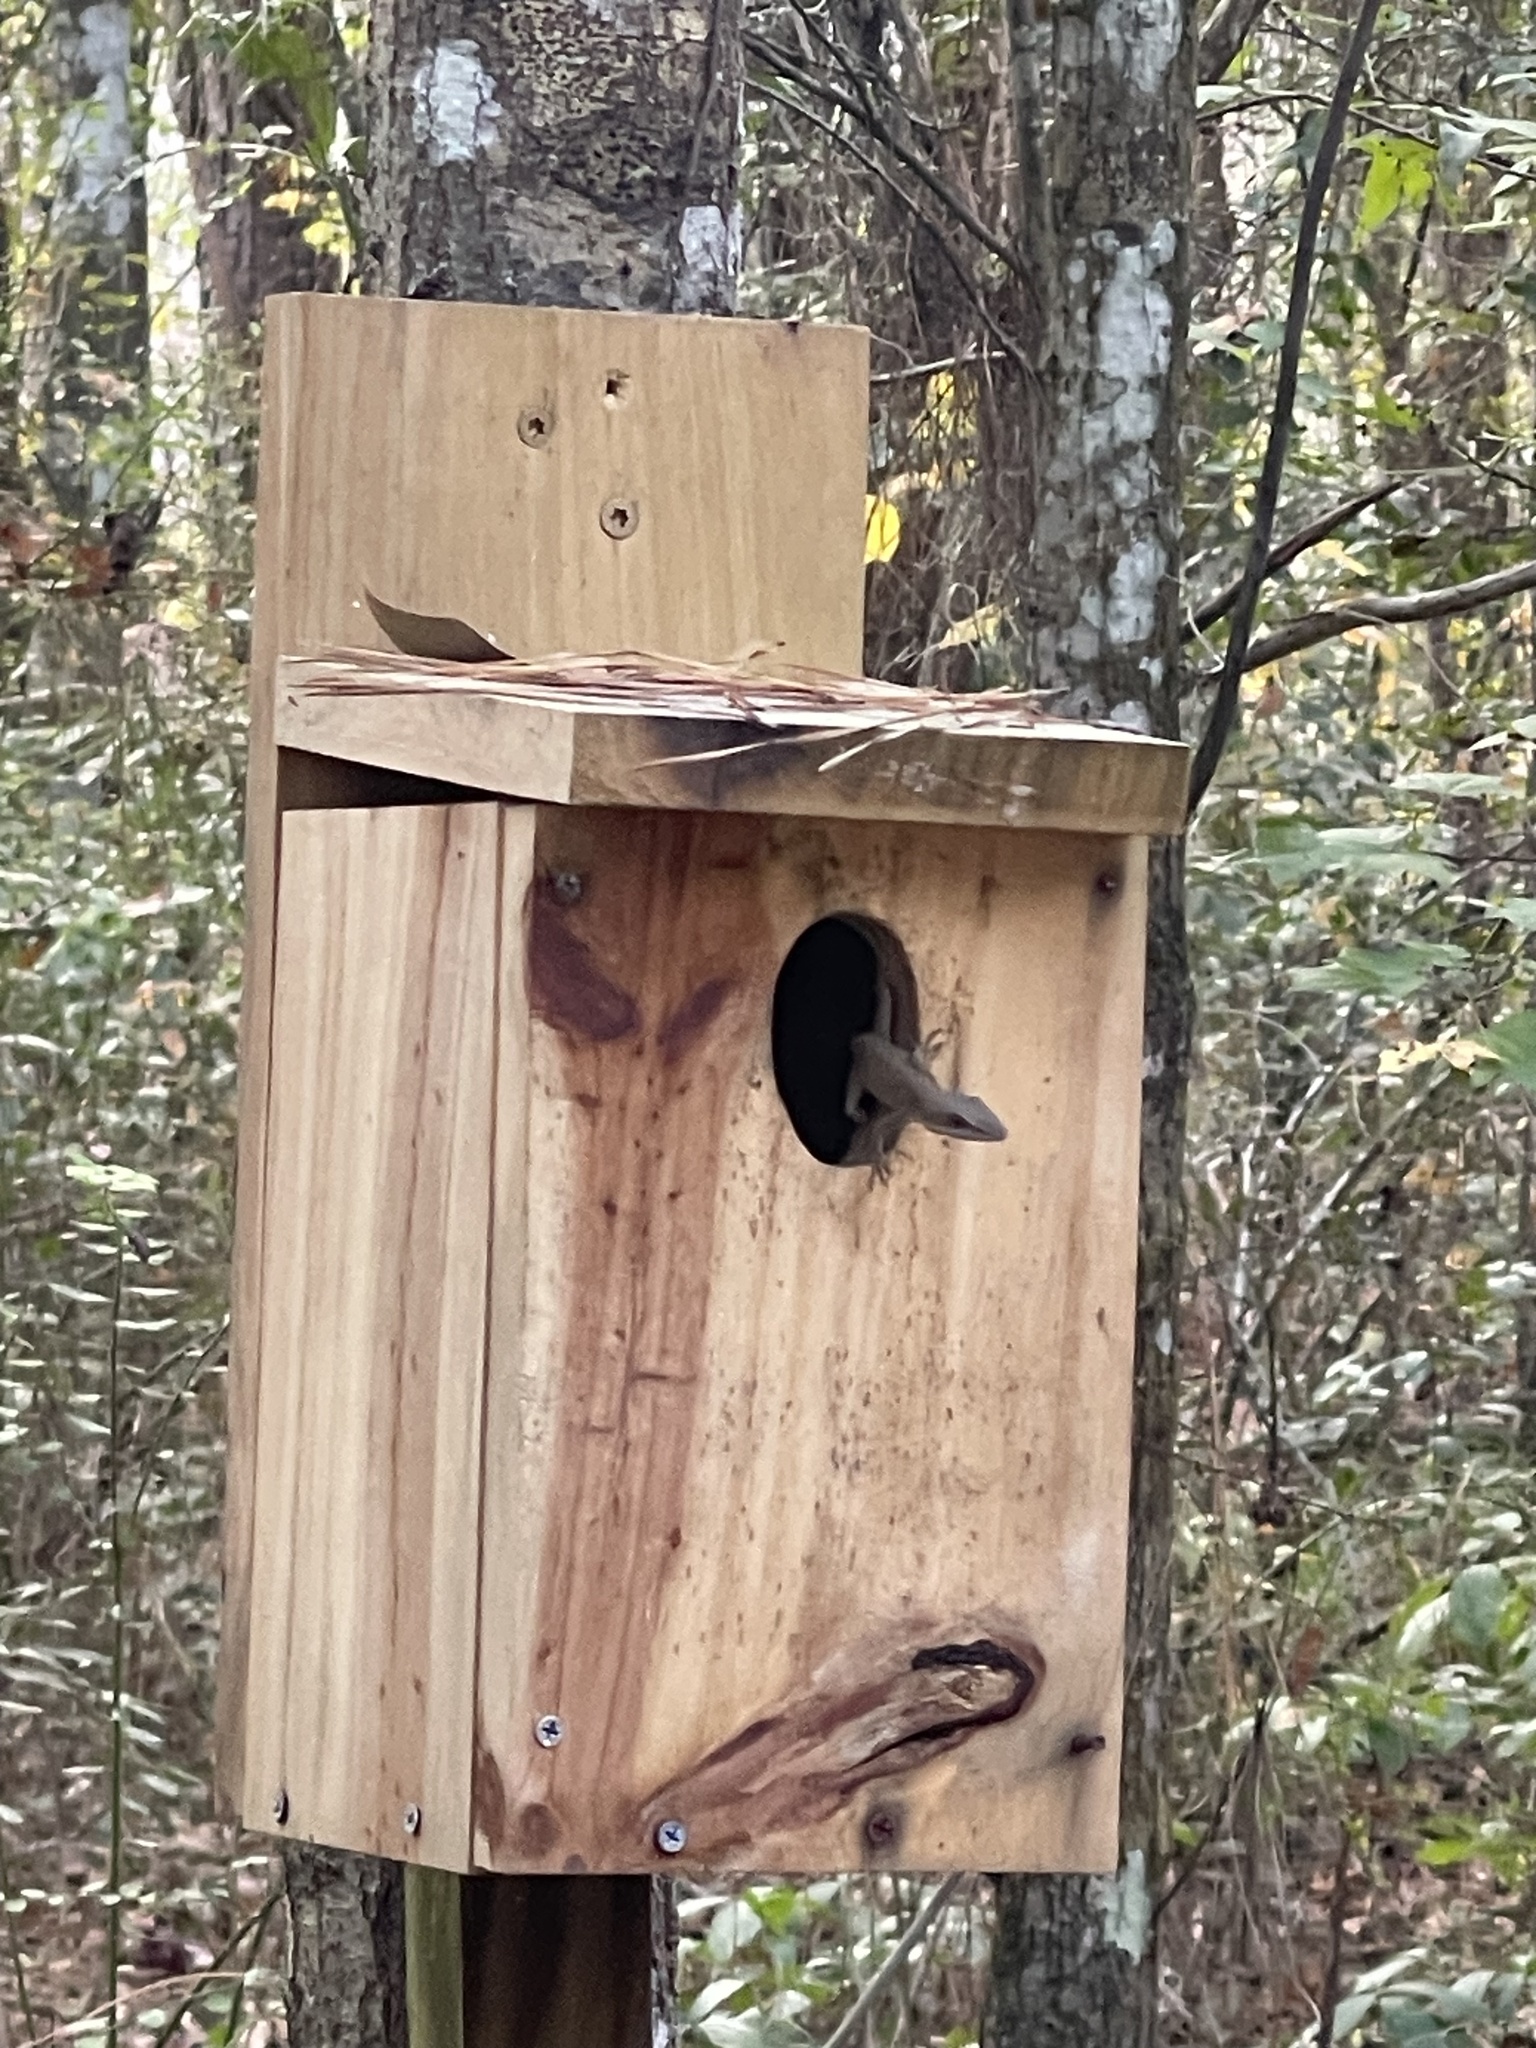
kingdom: Animalia
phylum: Chordata
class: Squamata
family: Dactyloidae
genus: Anolis
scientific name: Anolis carolinensis
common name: Green anole
